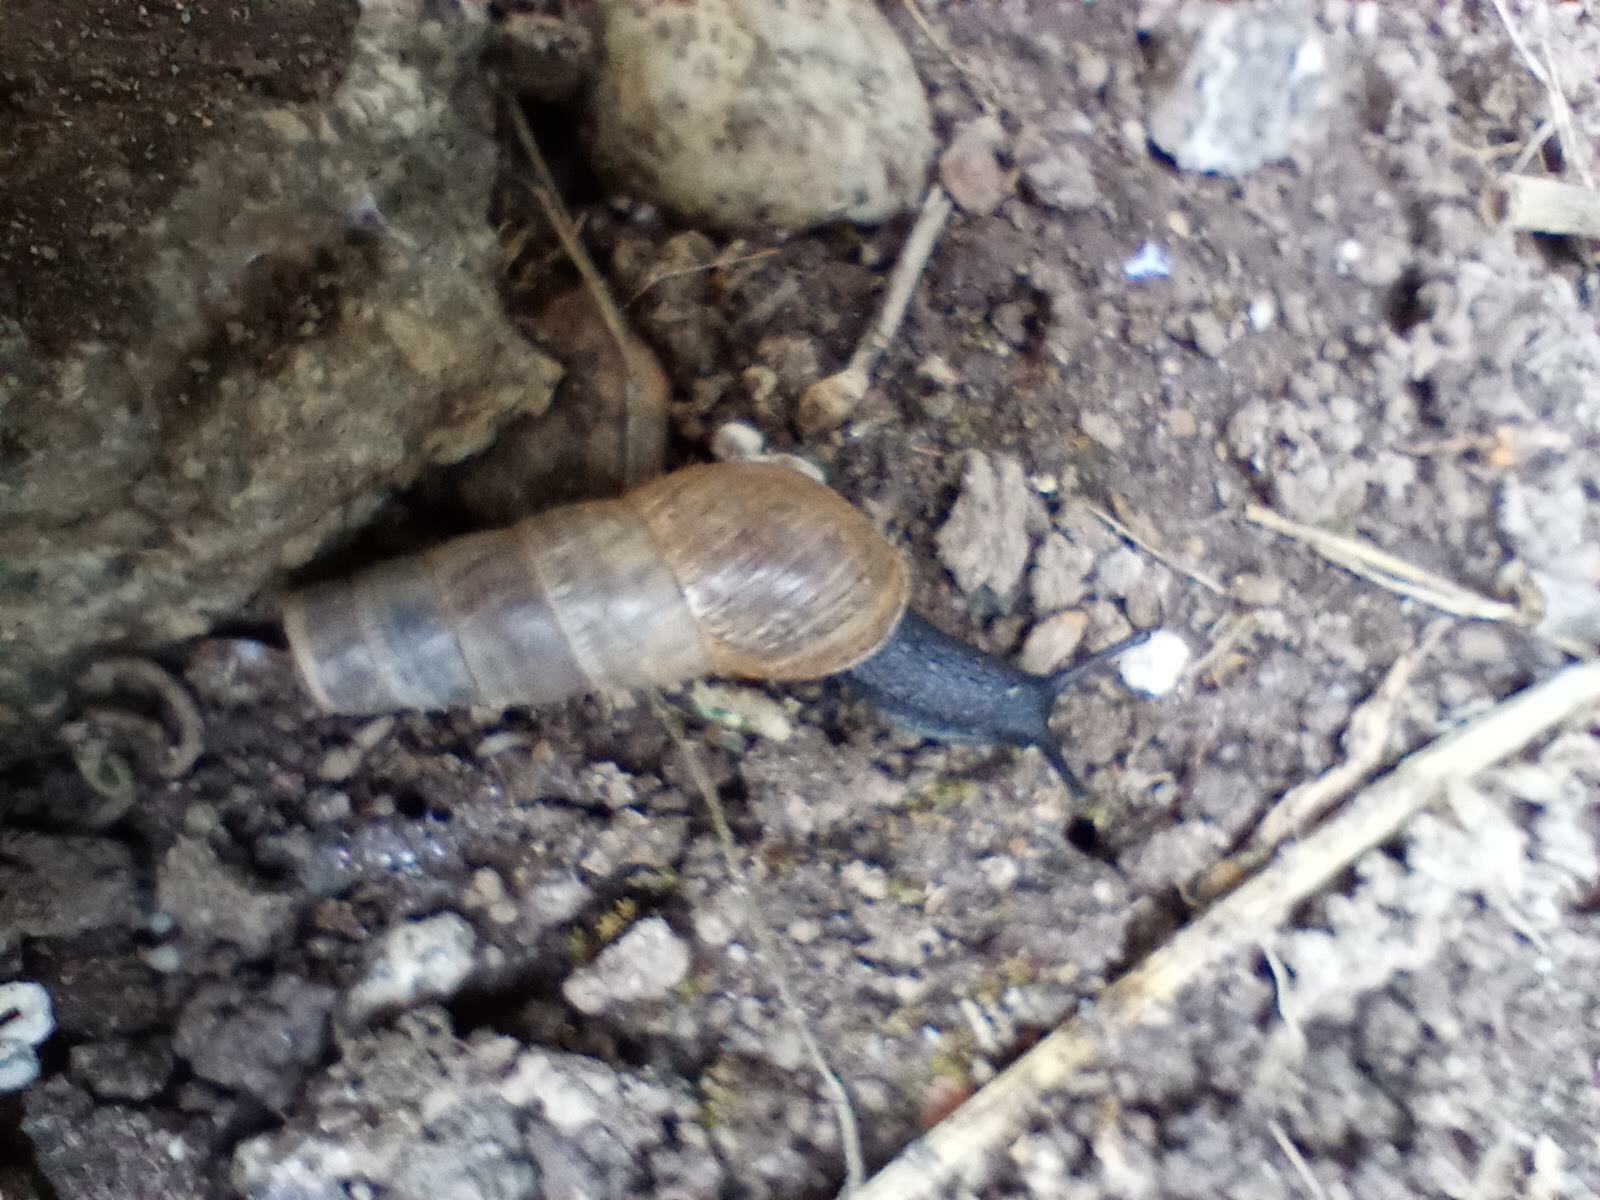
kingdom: Animalia
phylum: Mollusca
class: Gastropoda
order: Stylommatophora
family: Achatinidae
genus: Rumina
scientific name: Rumina decollata
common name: Decollate snail
